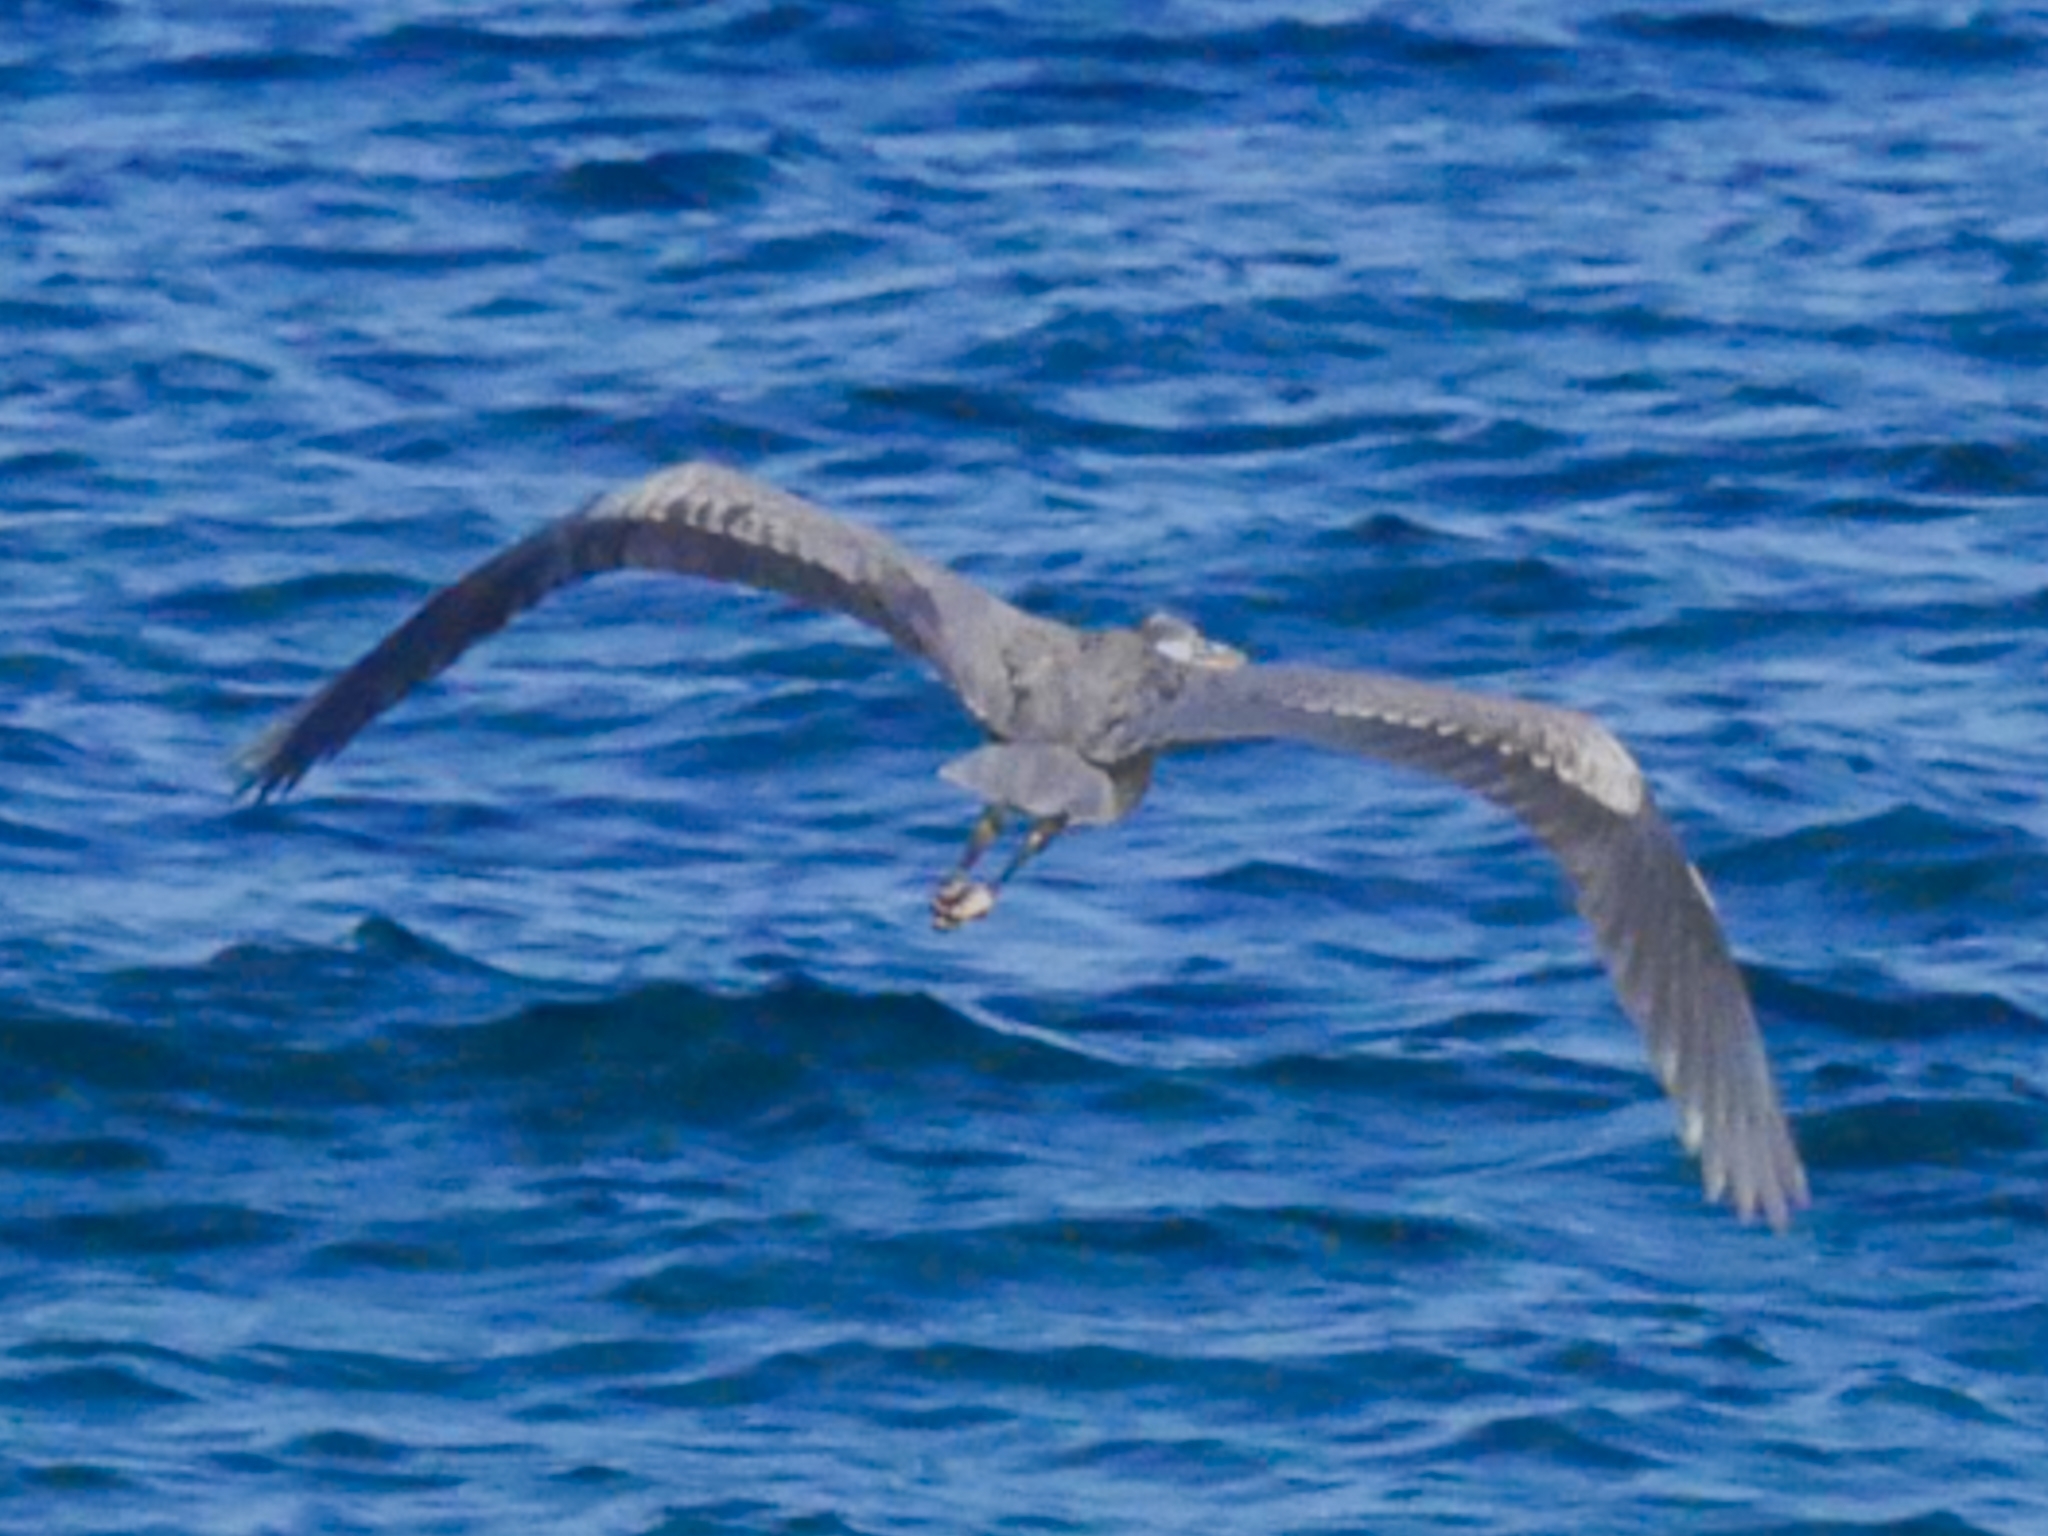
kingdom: Animalia
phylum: Chordata
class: Aves
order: Pelecaniformes
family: Ardeidae
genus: Ardea
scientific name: Ardea herodias
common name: Great blue heron
